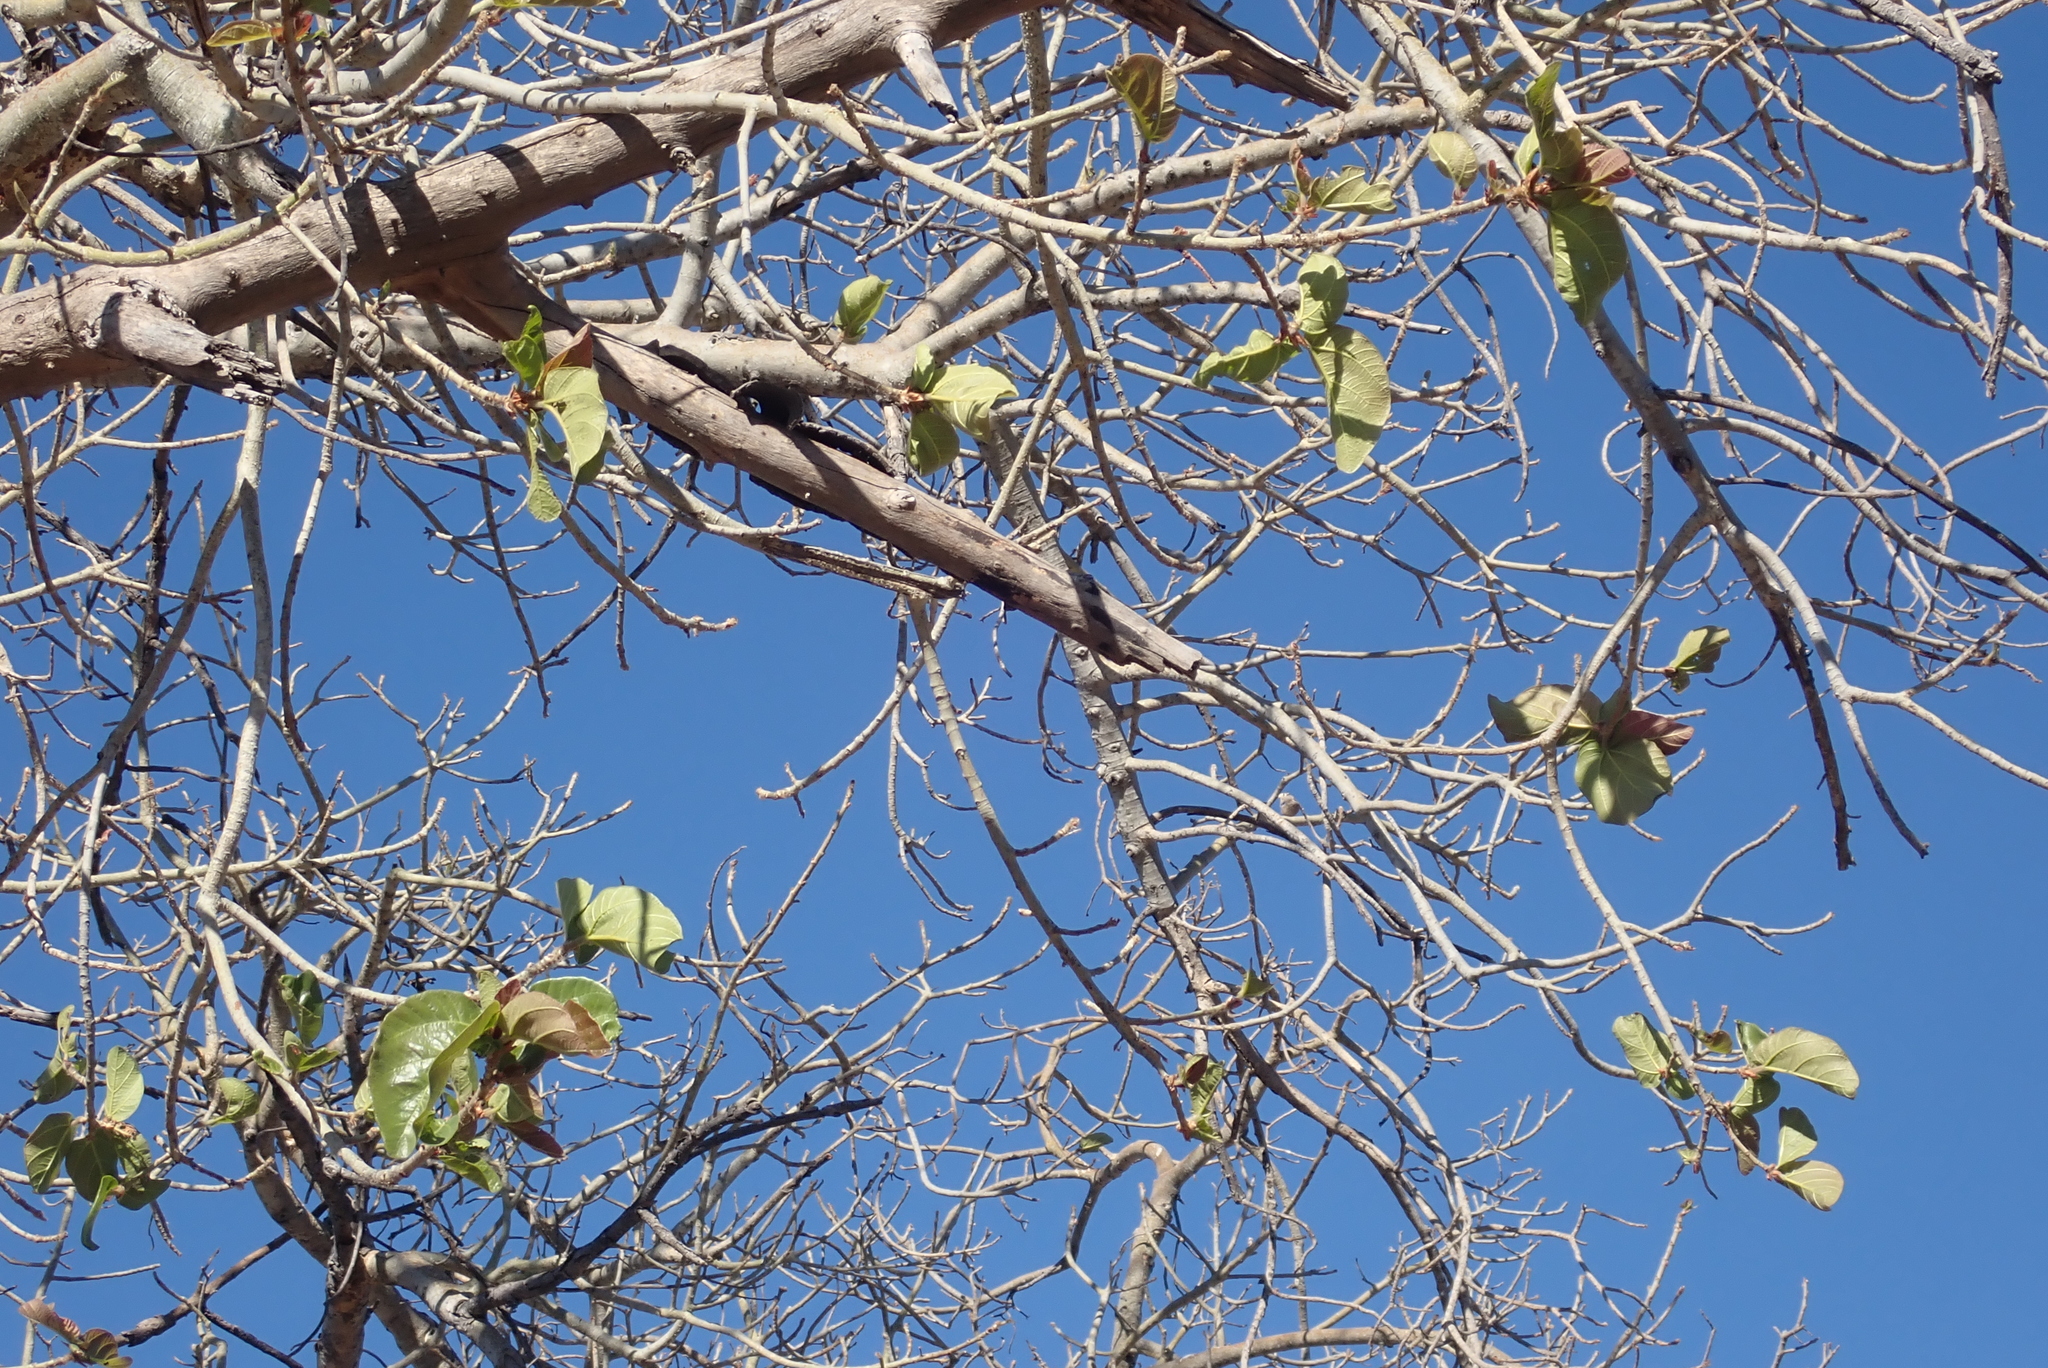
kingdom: Plantae
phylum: Tracheophyta
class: Magnoliopsida
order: Rosales
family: Moraceae
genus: Ficus
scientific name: Ficus sycomorus
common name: Sycomore
